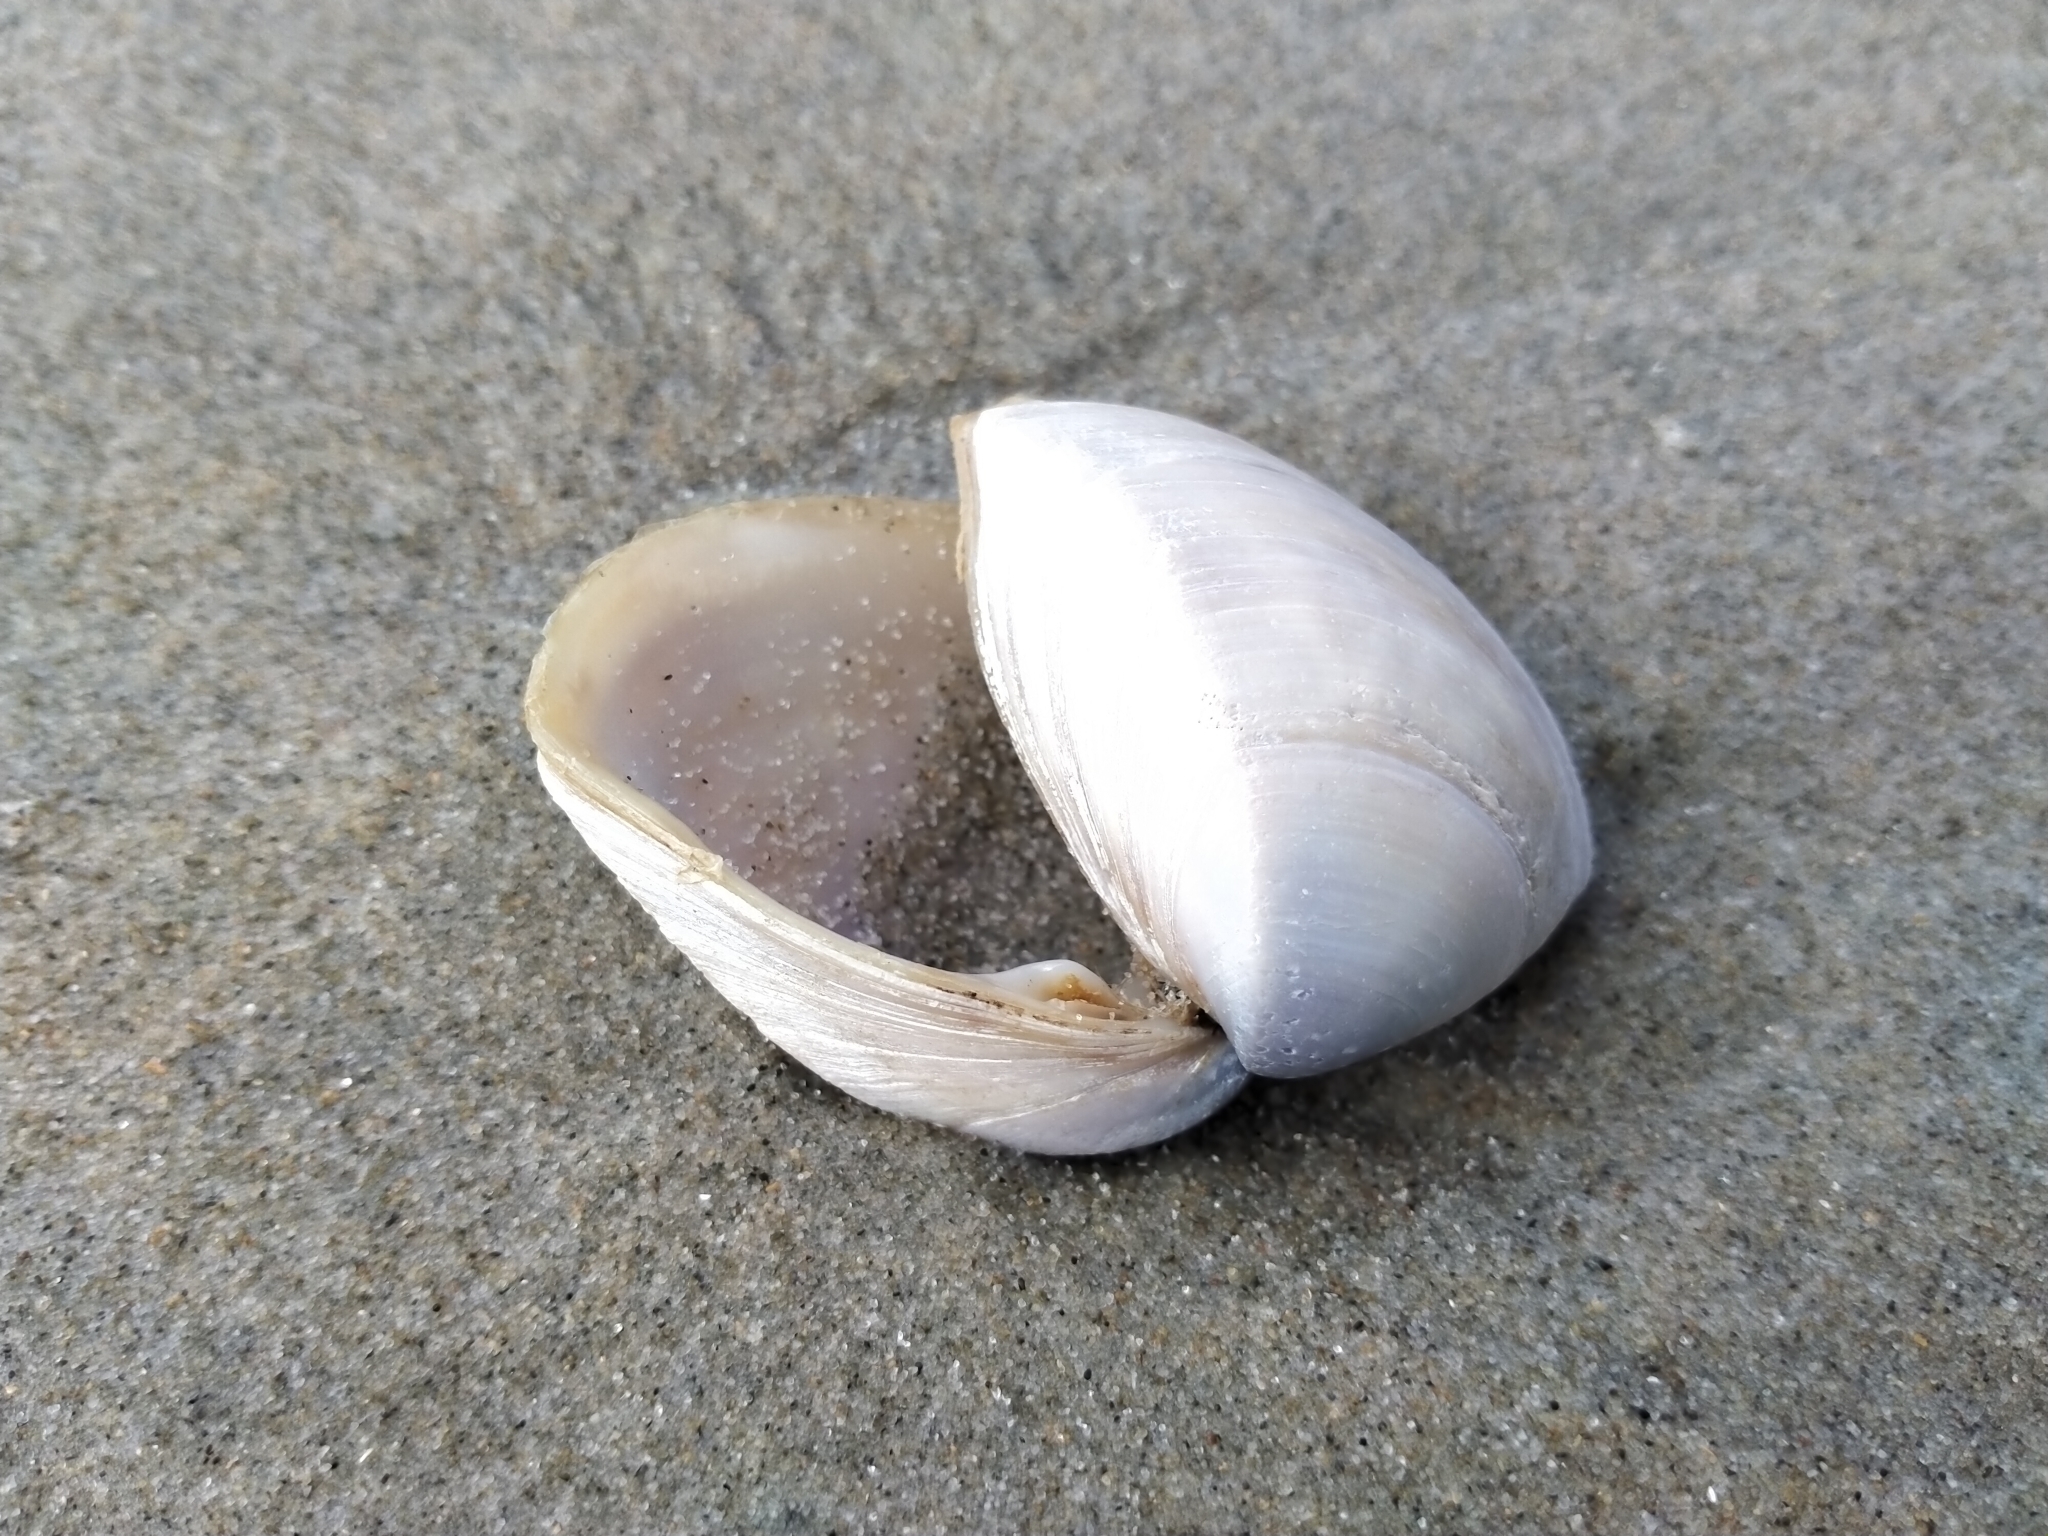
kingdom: Animalia
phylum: Mollusca
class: Bivalvia
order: Venerida
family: Mactridae
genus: Crassula
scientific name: Crassula aequilatera
